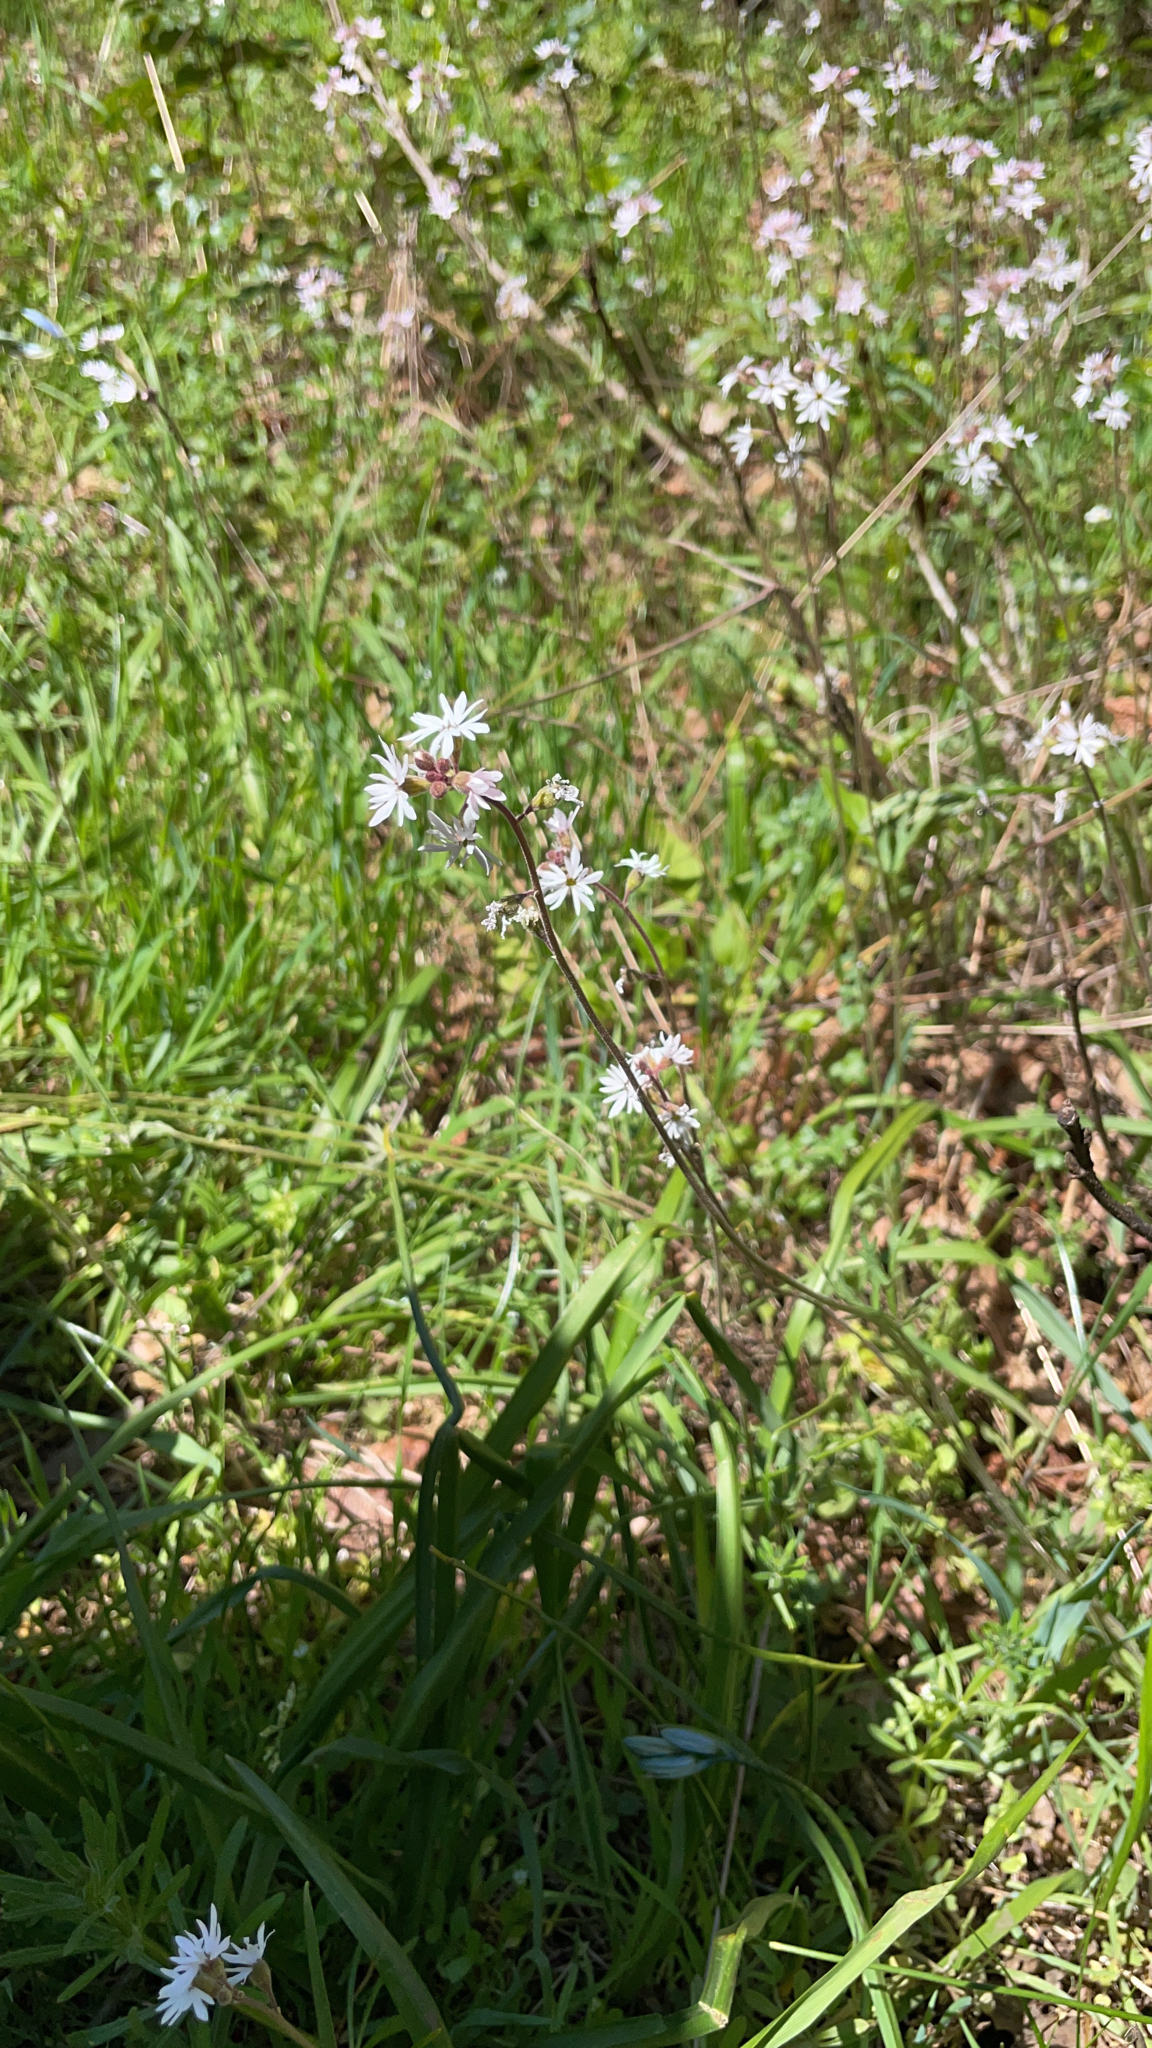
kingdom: Plantae
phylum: Tracheophyta
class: Magnoliopsida
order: Saxifragales
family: Saxifragaceae
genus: Lithophragma
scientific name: Lithophragma parviflorum
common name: Small-flowered fringe-cup
